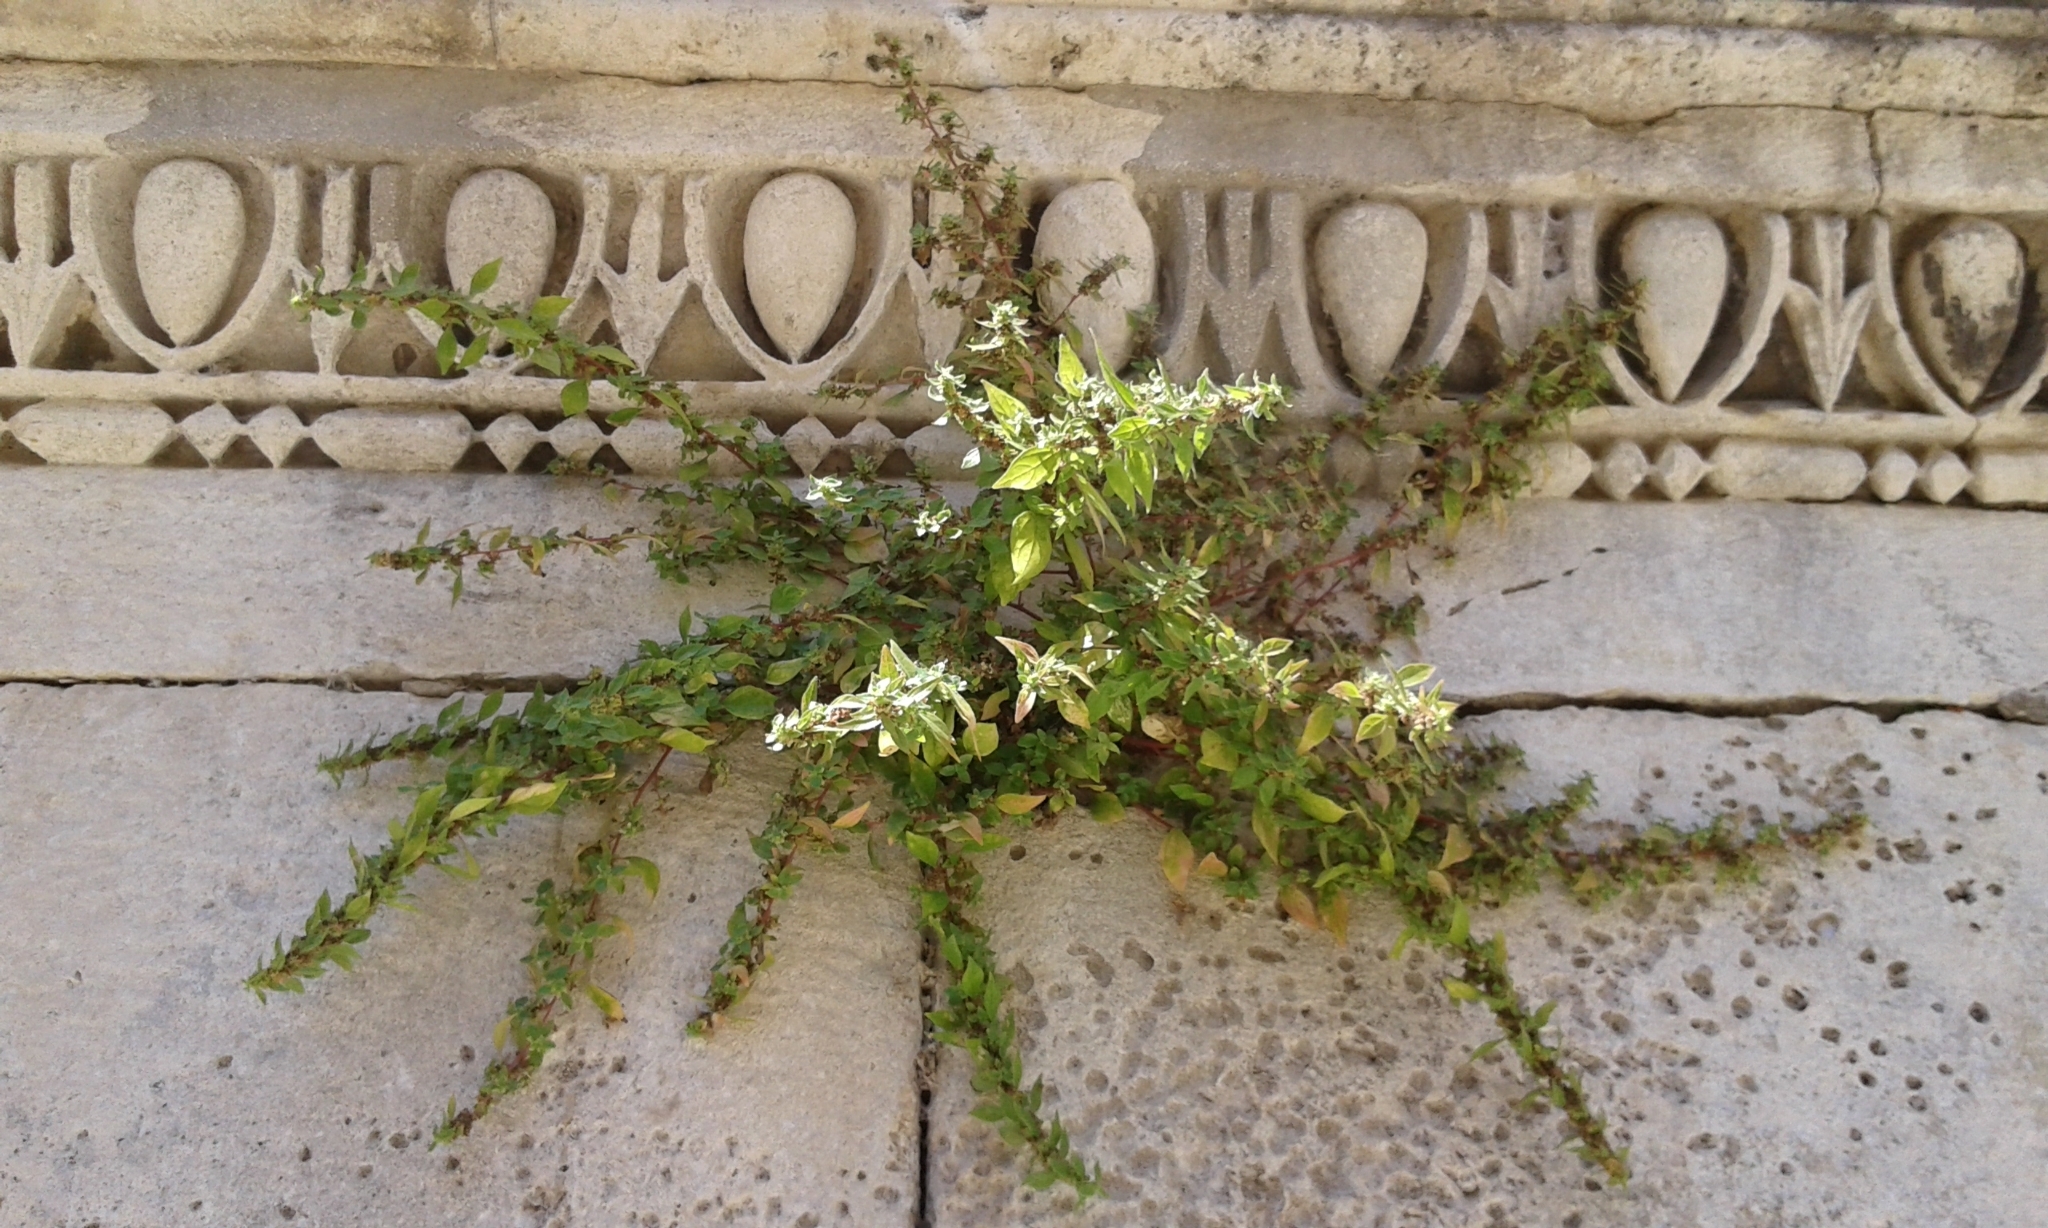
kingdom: Plantae
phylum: Tracheophyta
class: Magnoliopsida
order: Rosales
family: Urticaceae
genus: Parietaria
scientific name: Parietaria judaica
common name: Pellitory-of-the-wall
